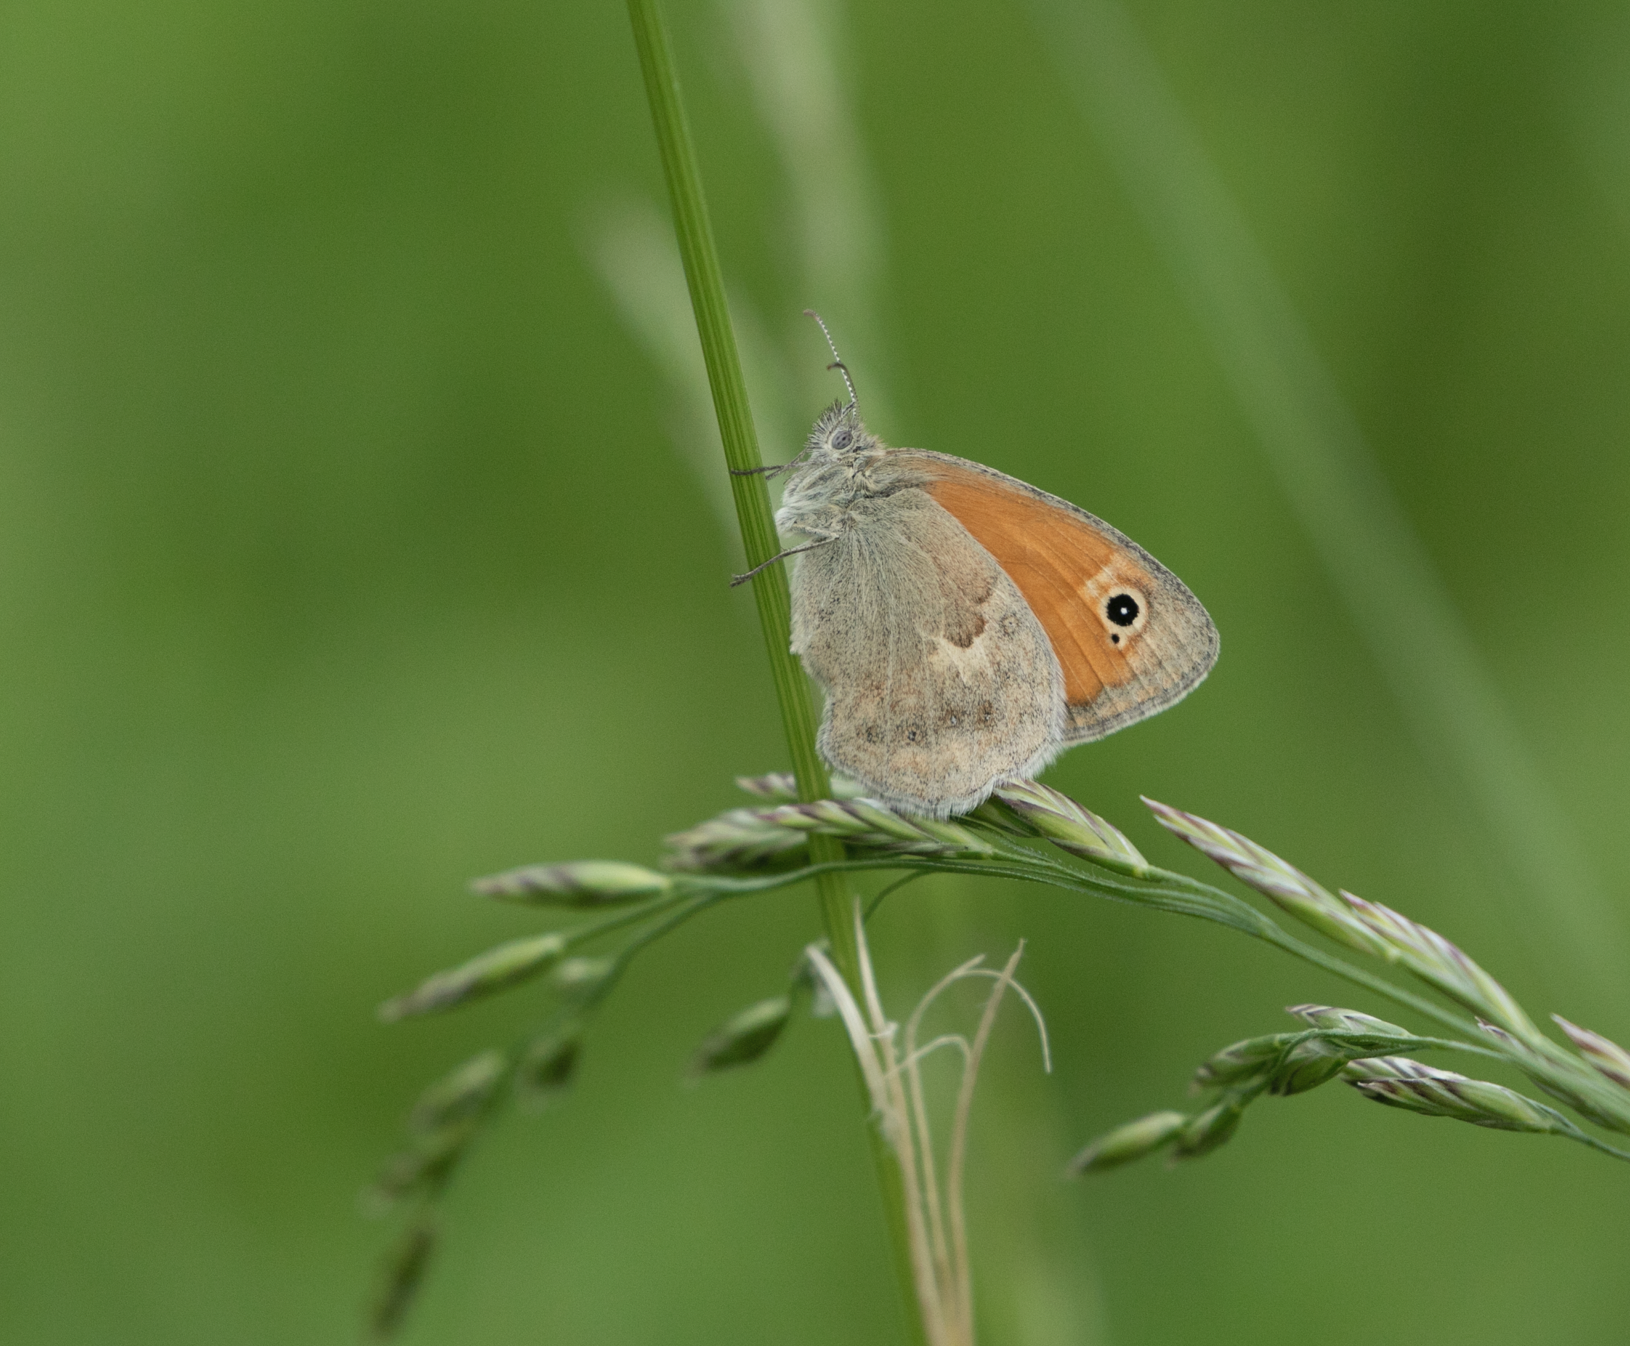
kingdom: Animalia
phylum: Arthropoda
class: Insecta
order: Lepidoptera
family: Nymphalidae
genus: Coenonympha
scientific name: Coenonympha pamphilus
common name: Small heath
